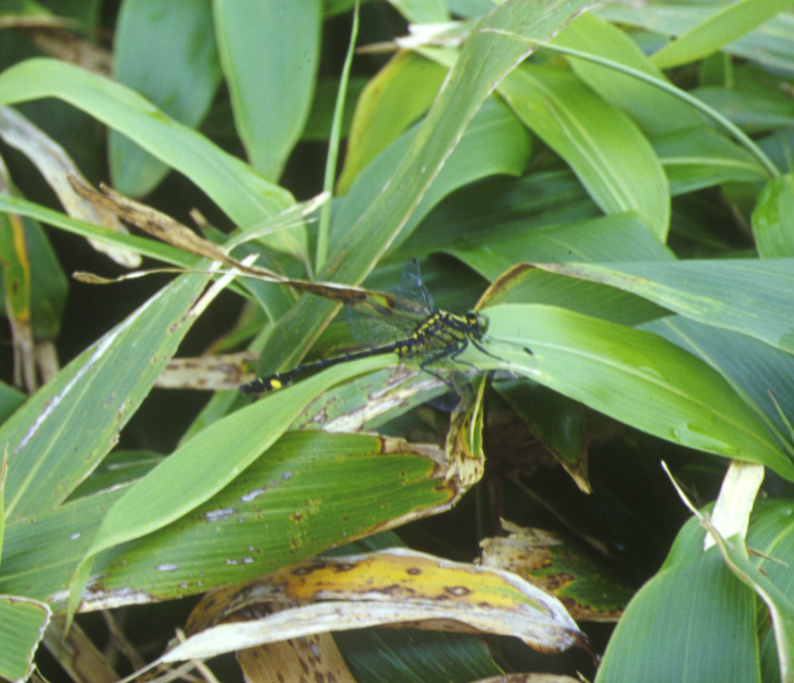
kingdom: Animalia
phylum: Arthropoda
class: Insecta
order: Odonata
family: Gomphidae
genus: Anisogomphus
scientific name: Anisogomphus maacki
